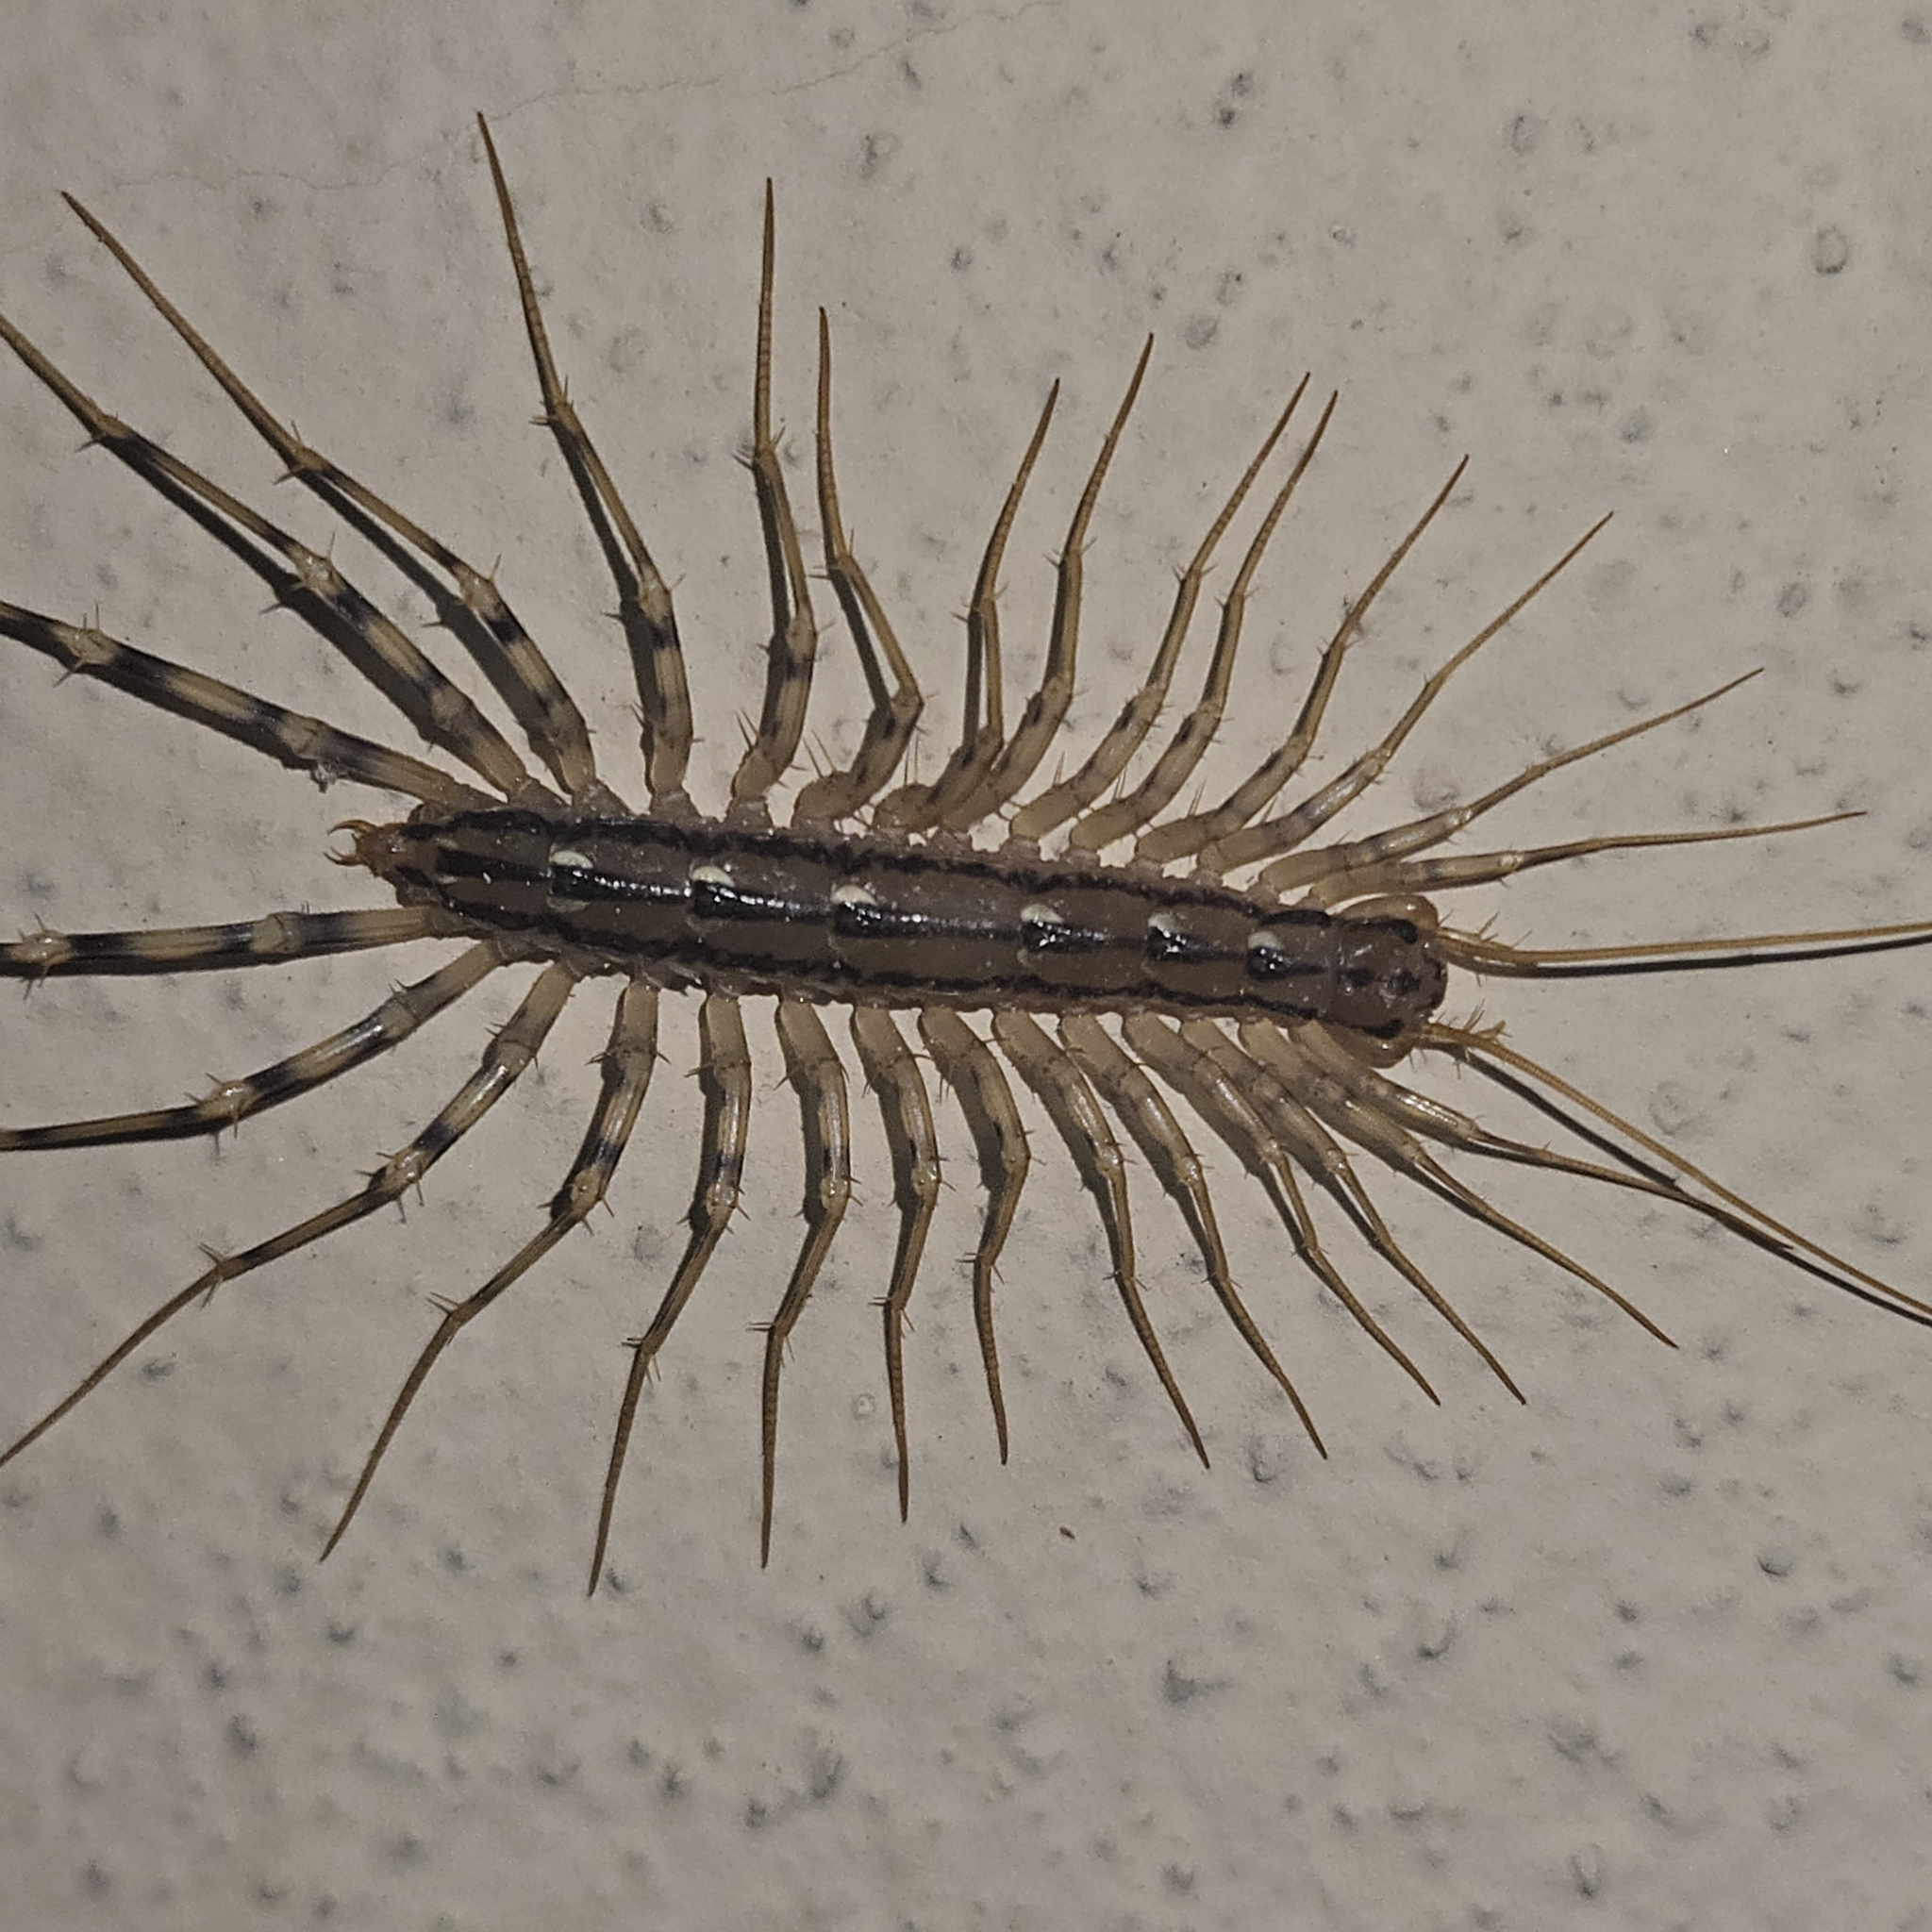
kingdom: Animalia
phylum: Arthropoda
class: Chilopoda
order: Scutigeromorpha
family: Scutigeridae
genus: Scutigera
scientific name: Scutigera coleoptrata
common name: House centipede
